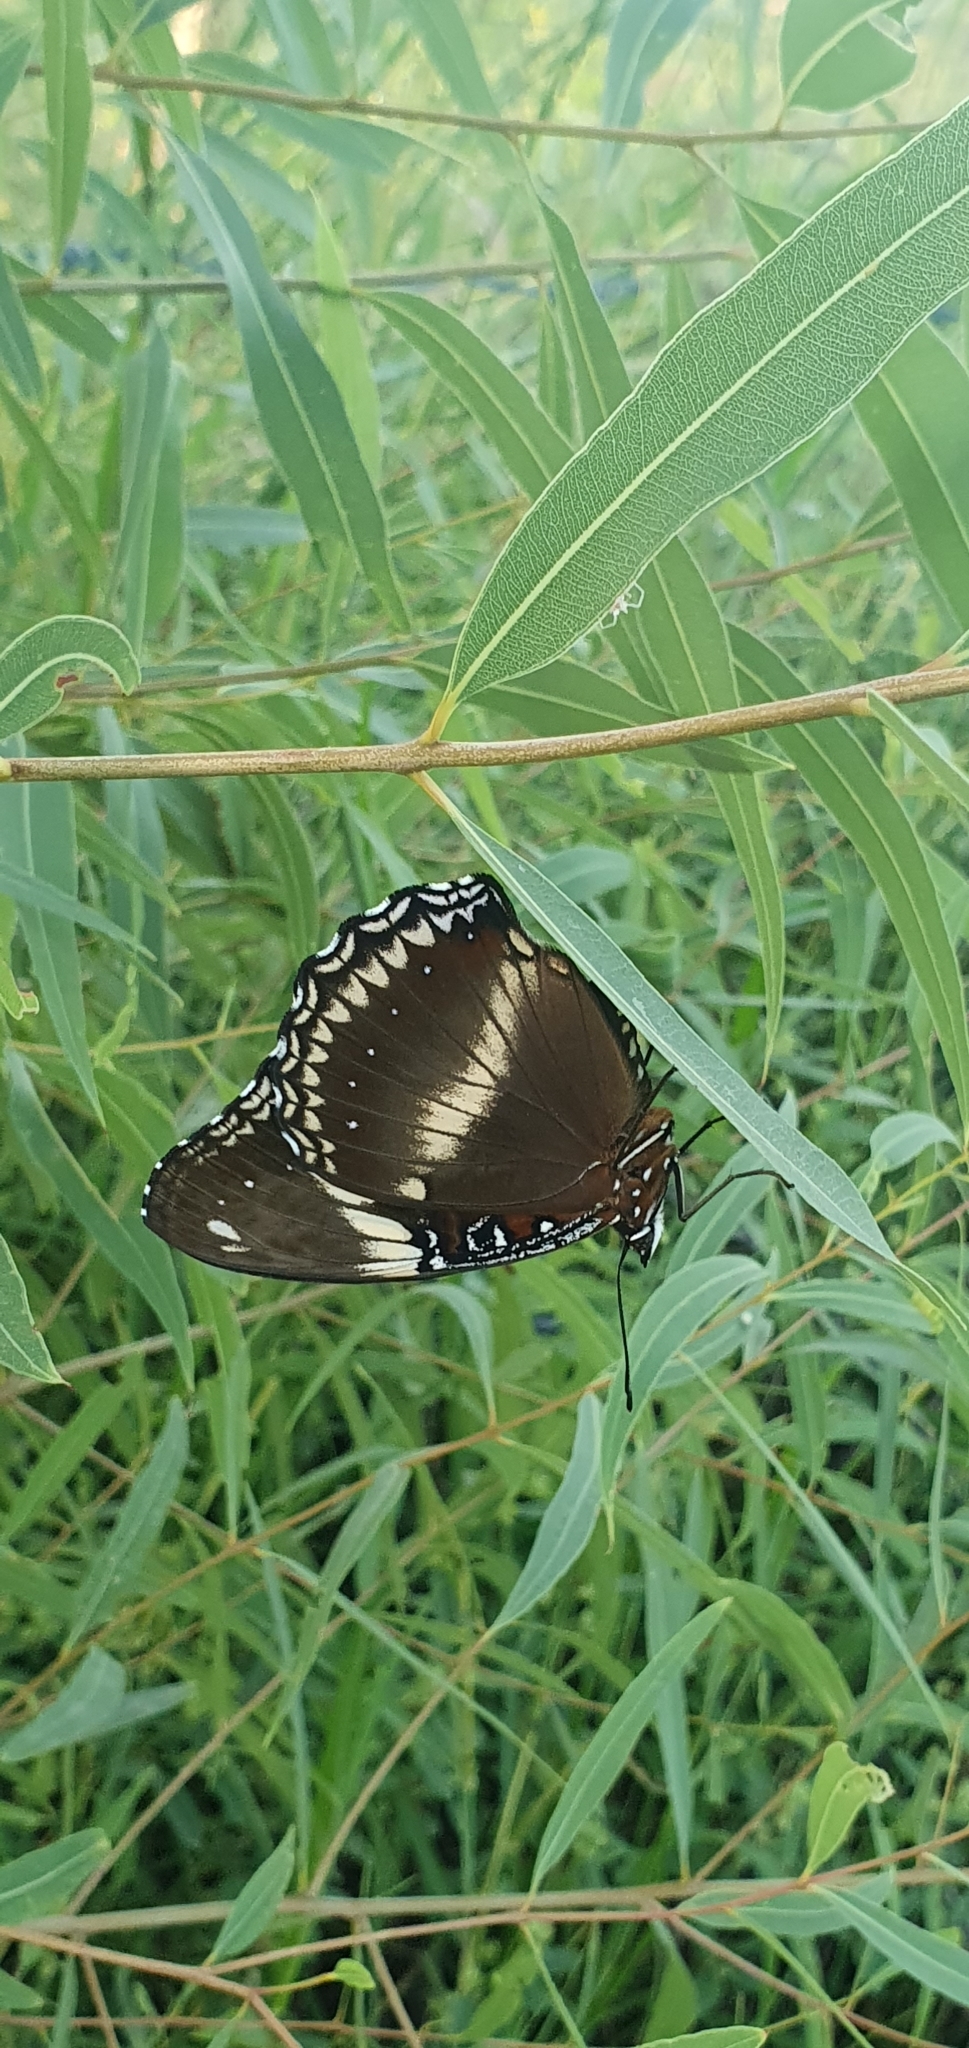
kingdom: Animalia
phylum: Arthropoda
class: Insecta
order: Lepidoptera
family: Nymphalidae
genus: Hypolimnas
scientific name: Hypolimnas bolina
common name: Great eggfly
